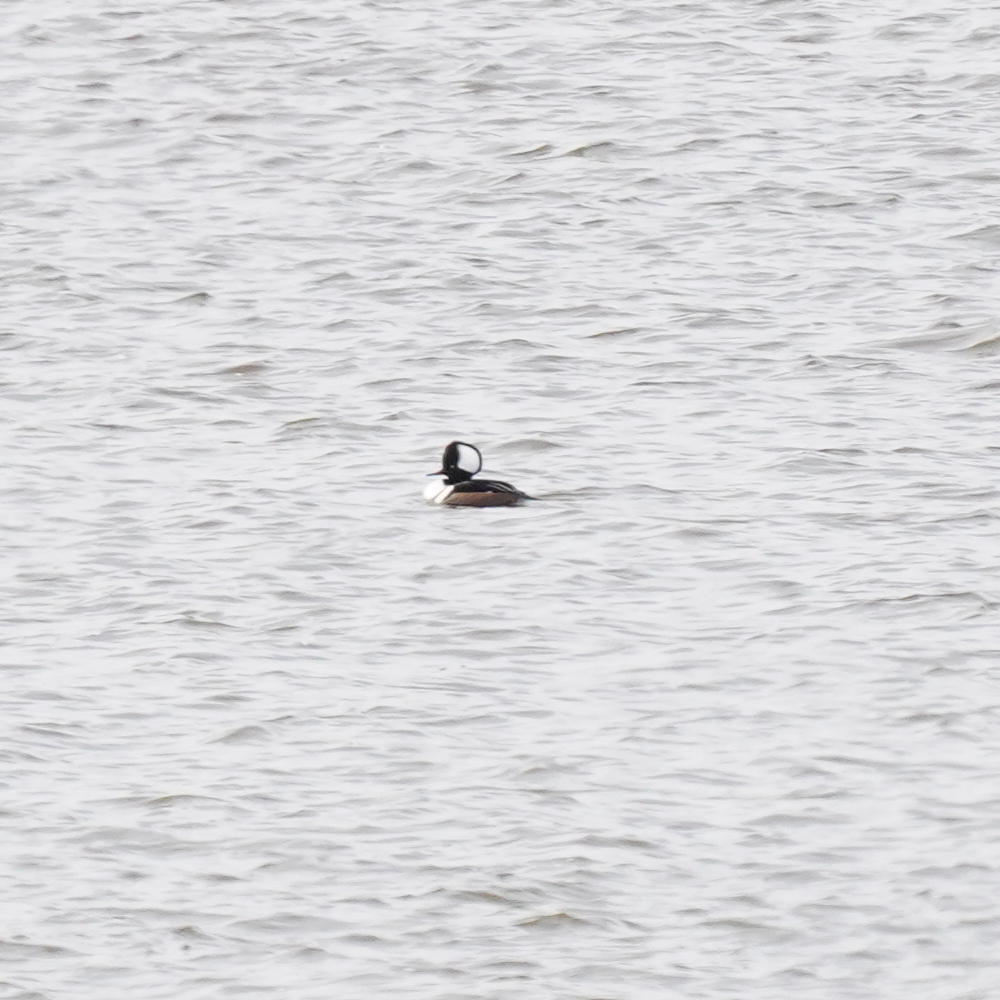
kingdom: Animalia
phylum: Chordata
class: Aves
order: Anseriformes
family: Anatidae
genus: Lophodytes
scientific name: Lophodytes cucullatus
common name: Hooded merganser
